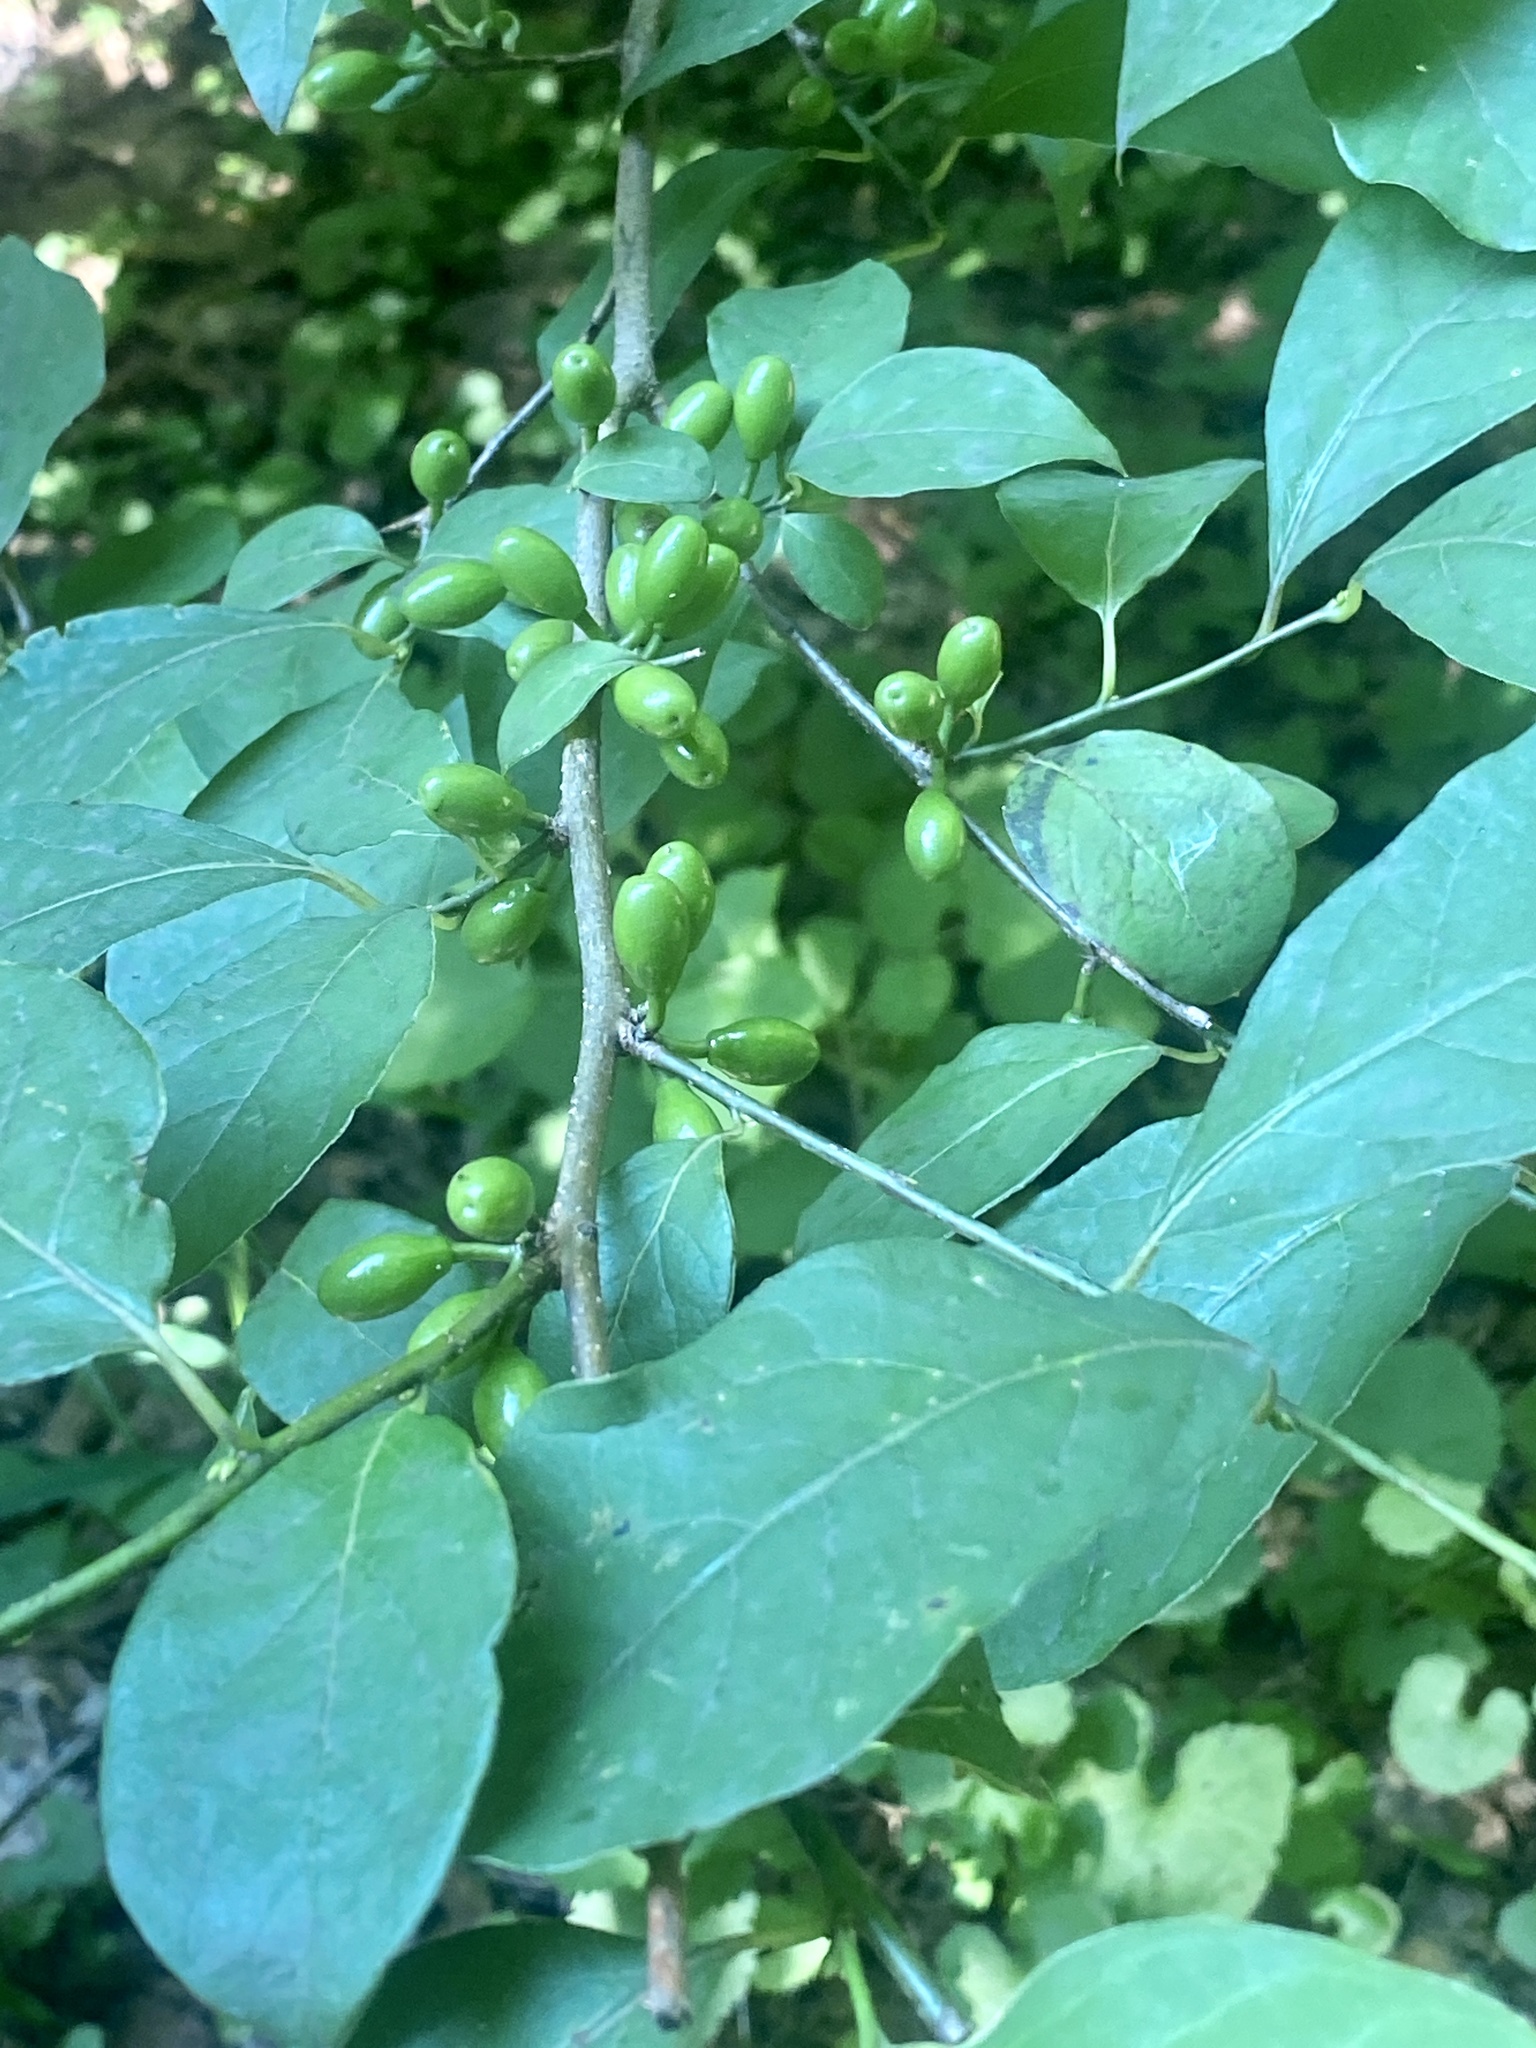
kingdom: Plantae
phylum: Tracheophyta
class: Magnoliopsida
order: Laurales
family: Lauraceae
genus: Lindera
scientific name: Lindera benzoin
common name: Spicebush
